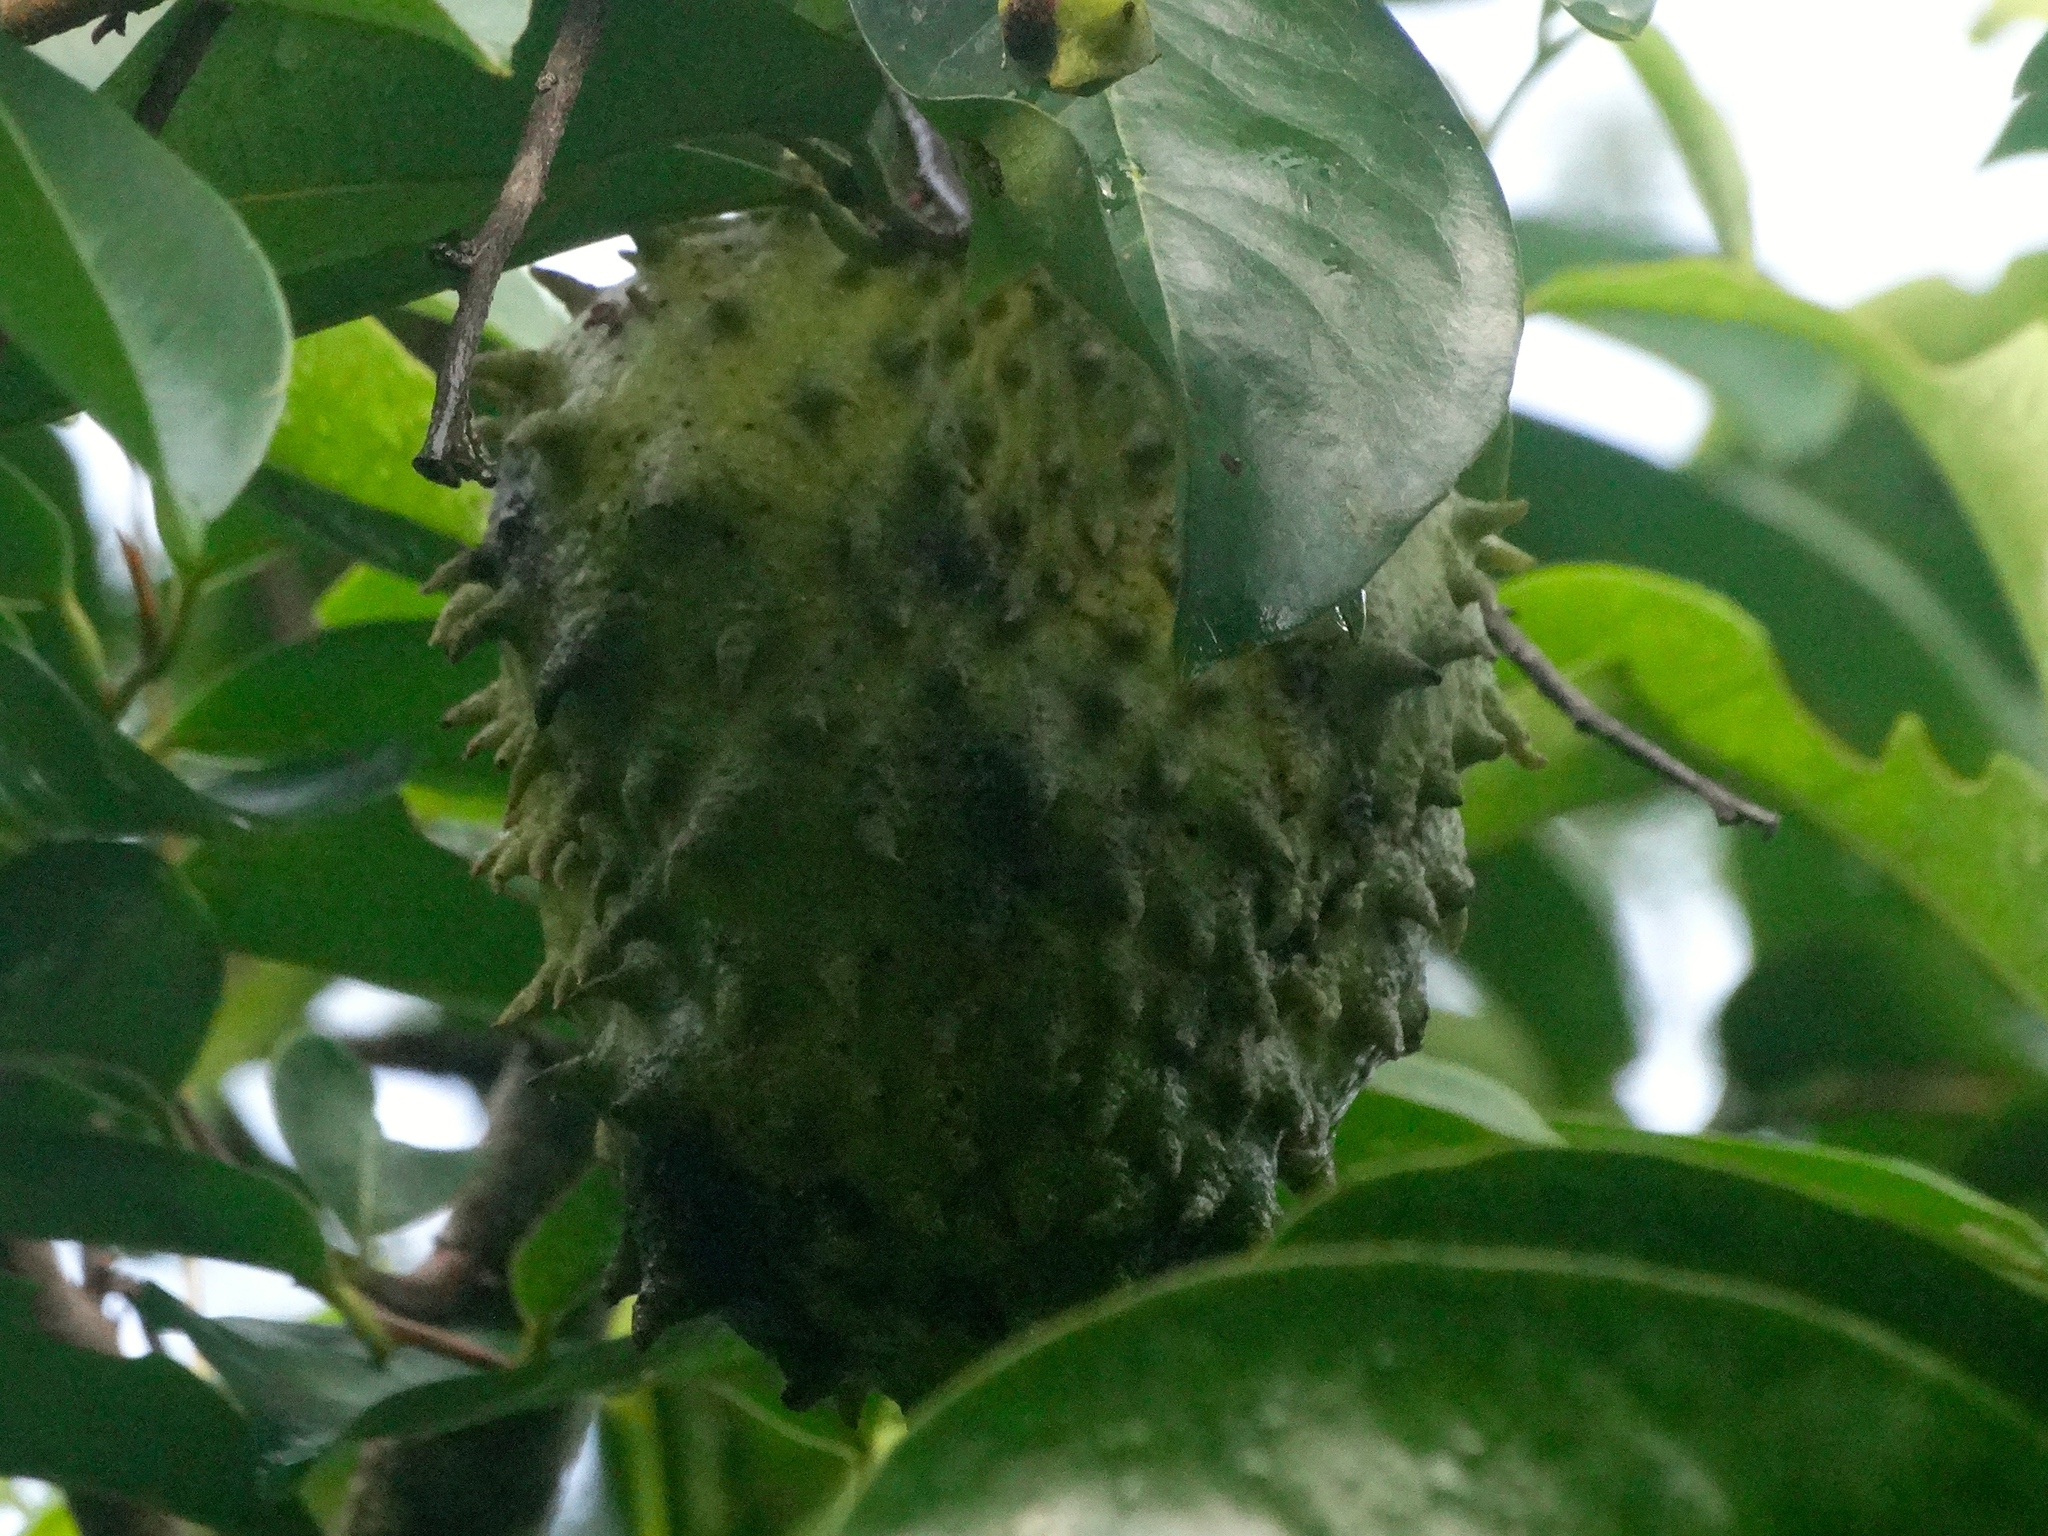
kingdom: Plantae
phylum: Tracheophyta
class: Magnoliopsida
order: Magnoliales
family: Annonaceae
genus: Annona
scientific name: Annona muricata
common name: Soursop
